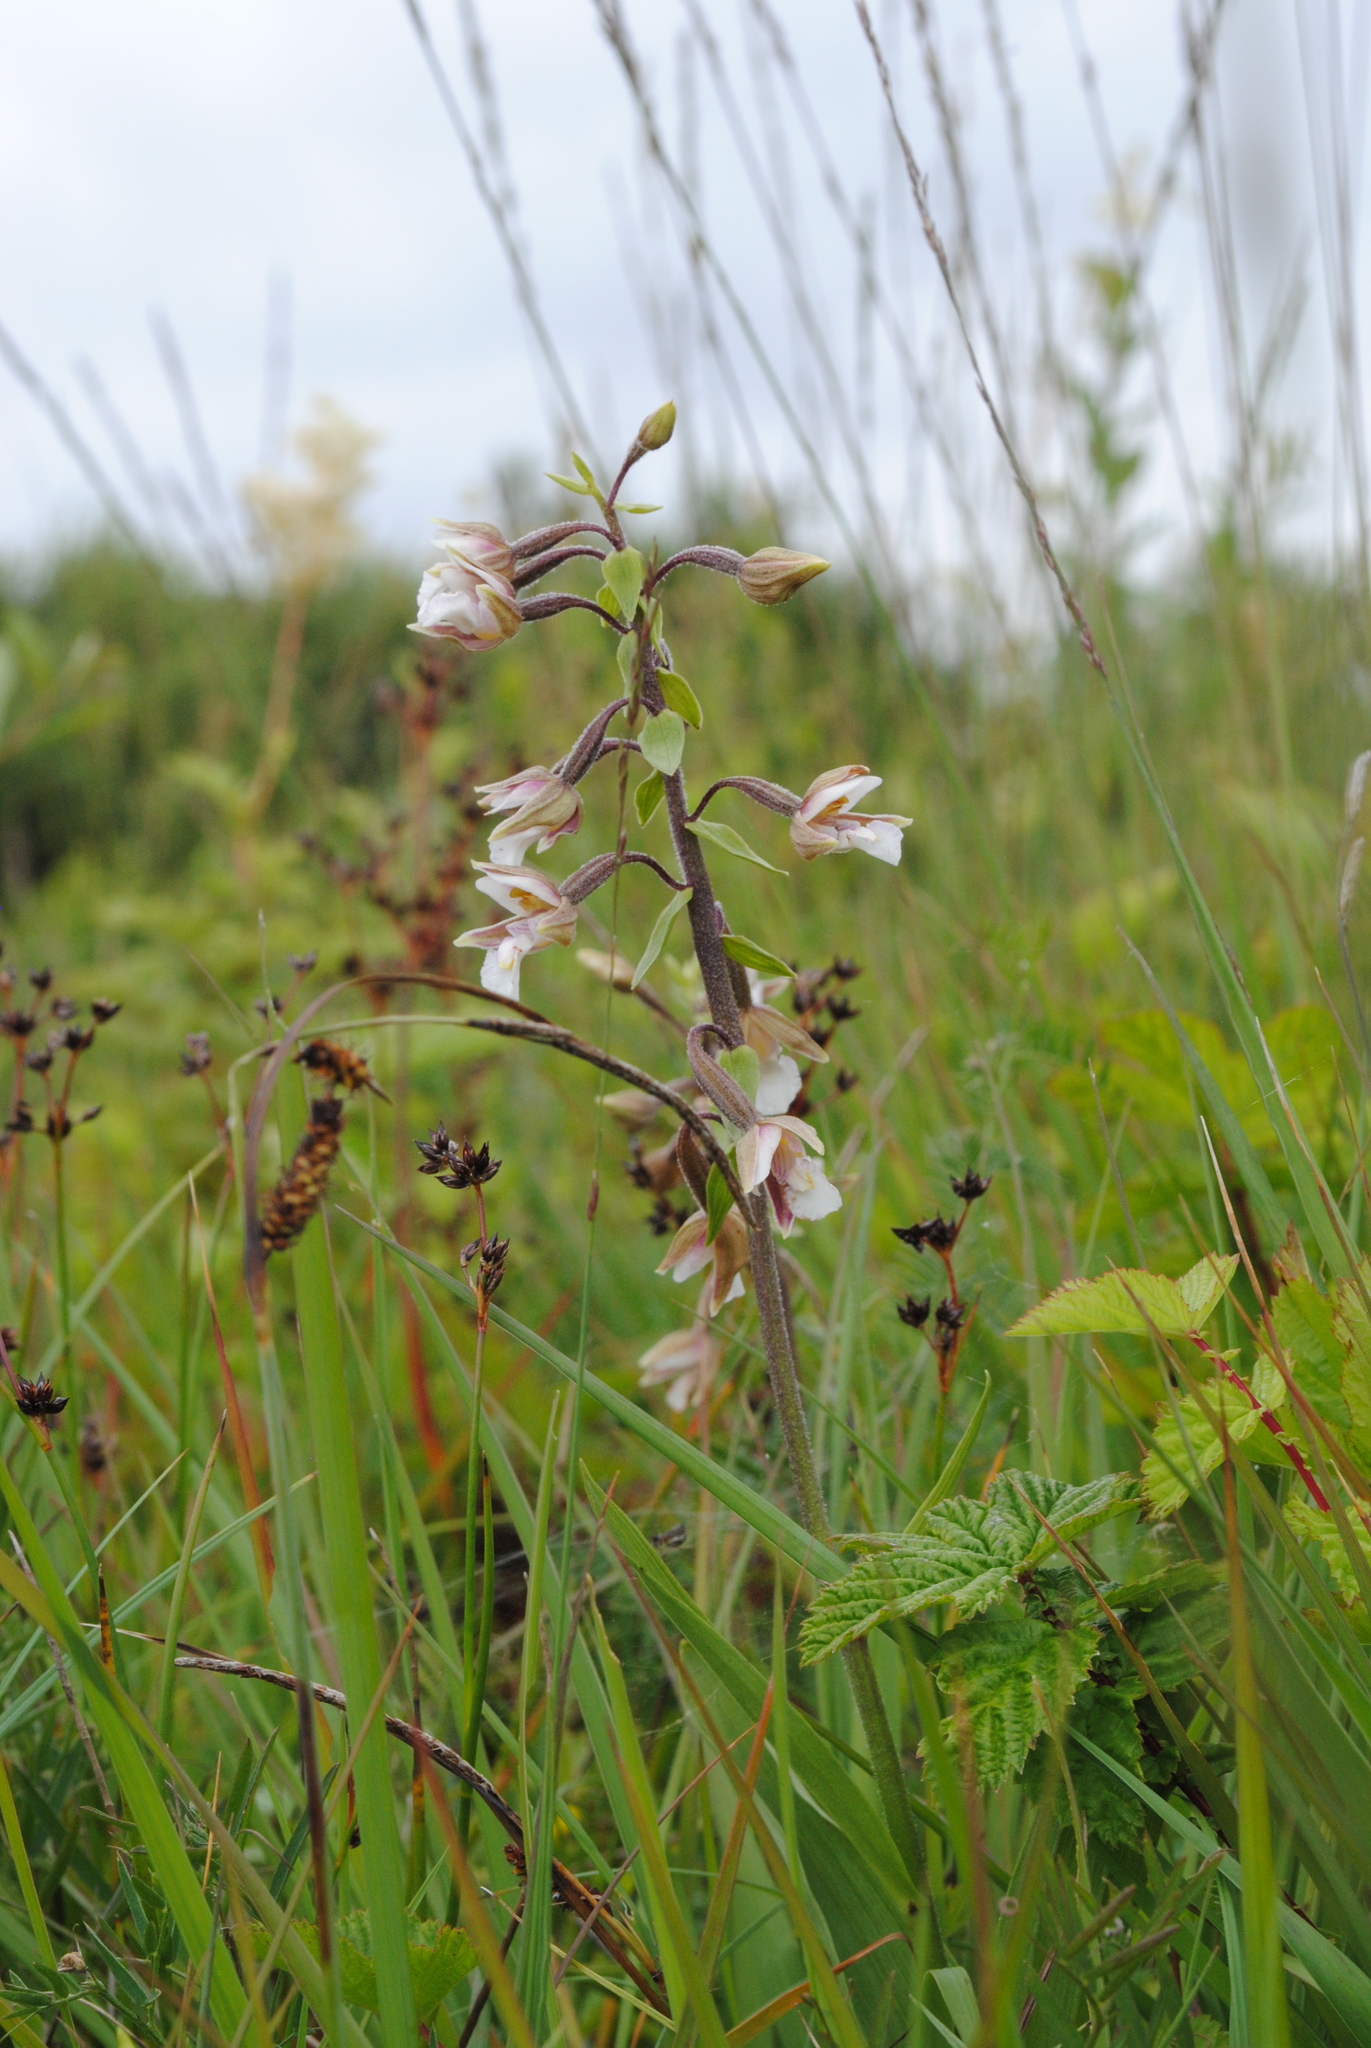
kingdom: Plantae
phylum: Tracheophyta
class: Liliopsida
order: Asparagales
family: Orchidaceae
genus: Epipactis
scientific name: Epipactis palustris
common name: Marsh helleborine
